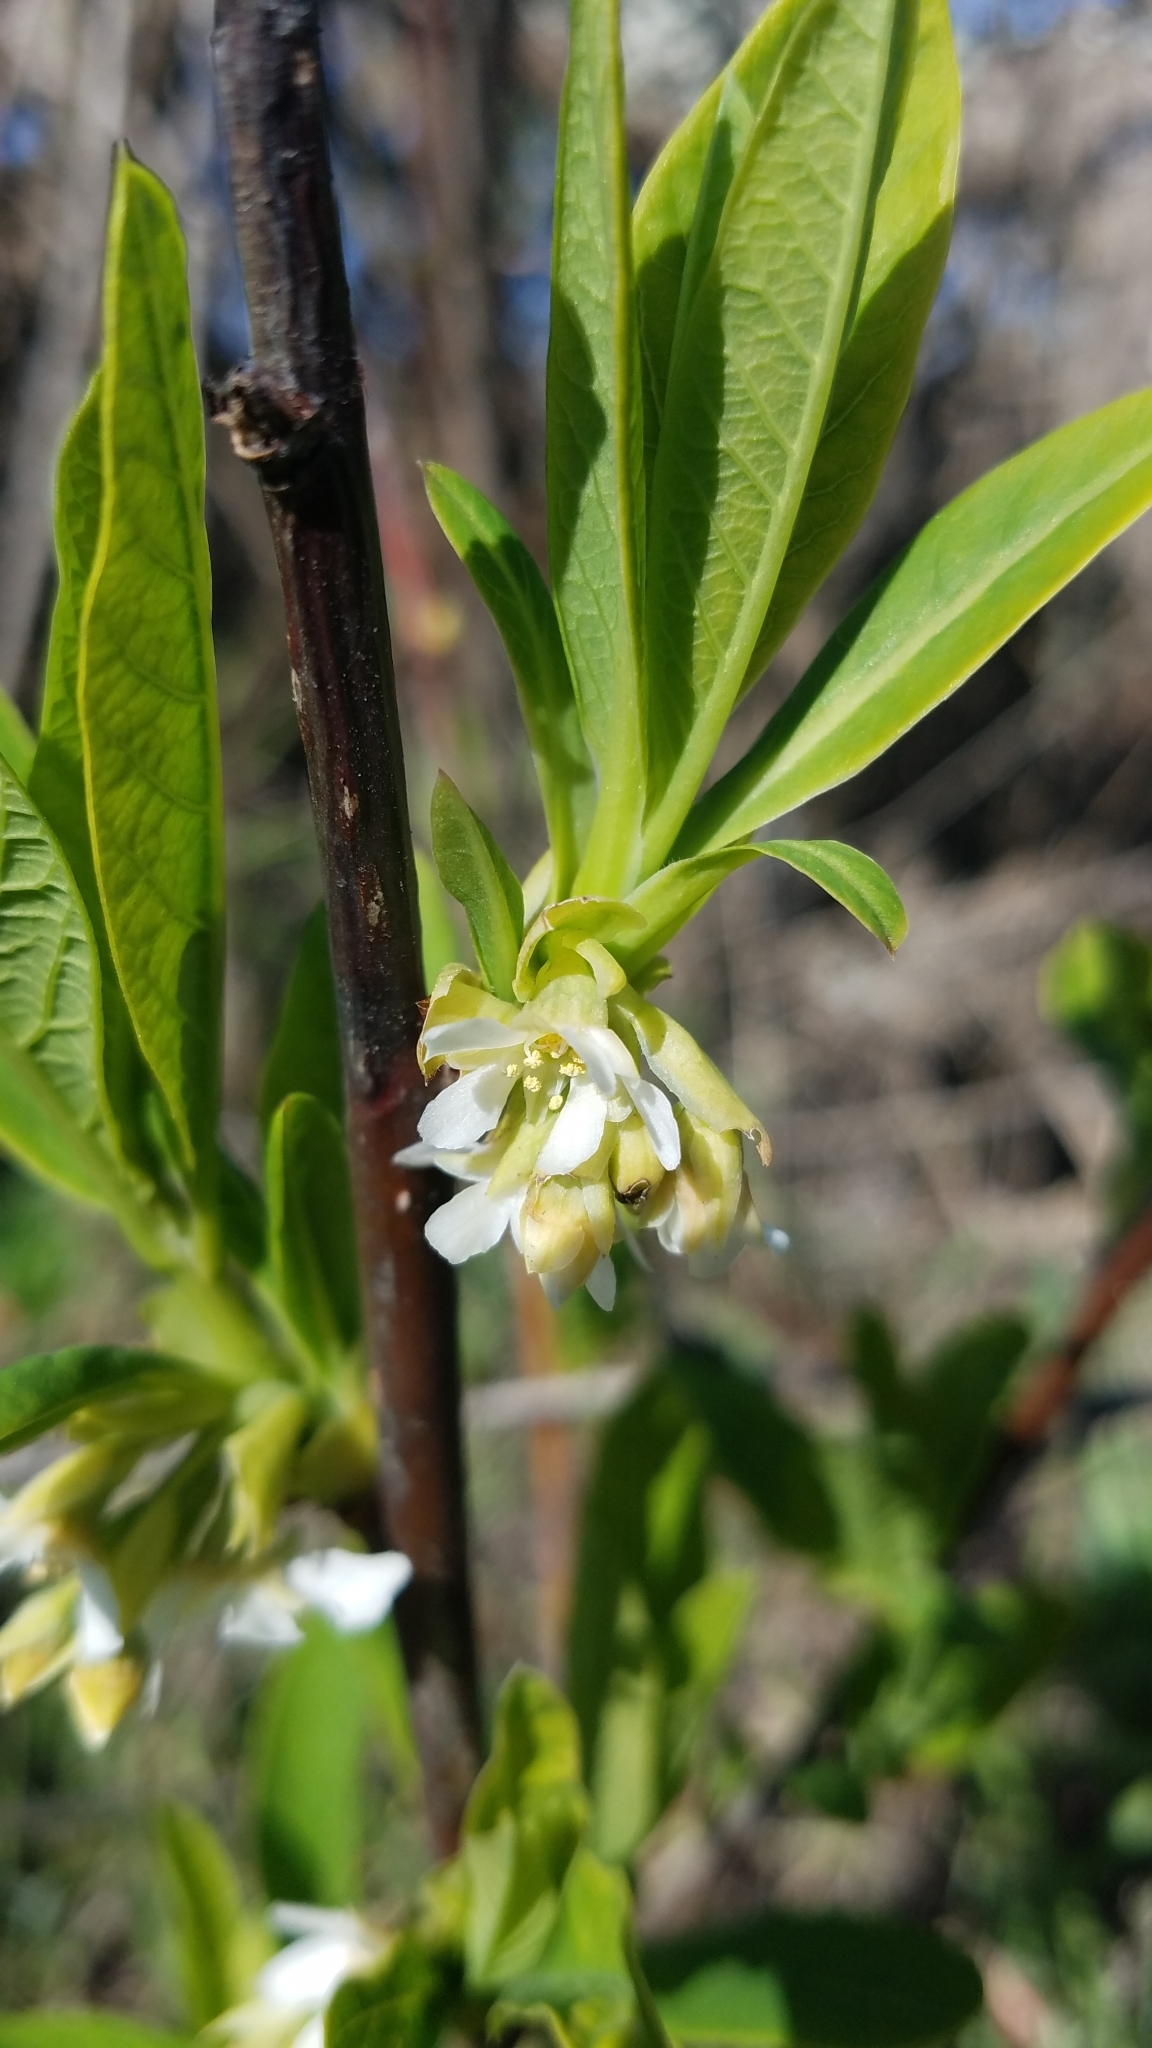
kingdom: Plantae
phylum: Tracheophyta
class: Magnoliopsida
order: Rosales
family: Rosaceae
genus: Oemleria
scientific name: Oemleria cerasiformis
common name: Osoberry
